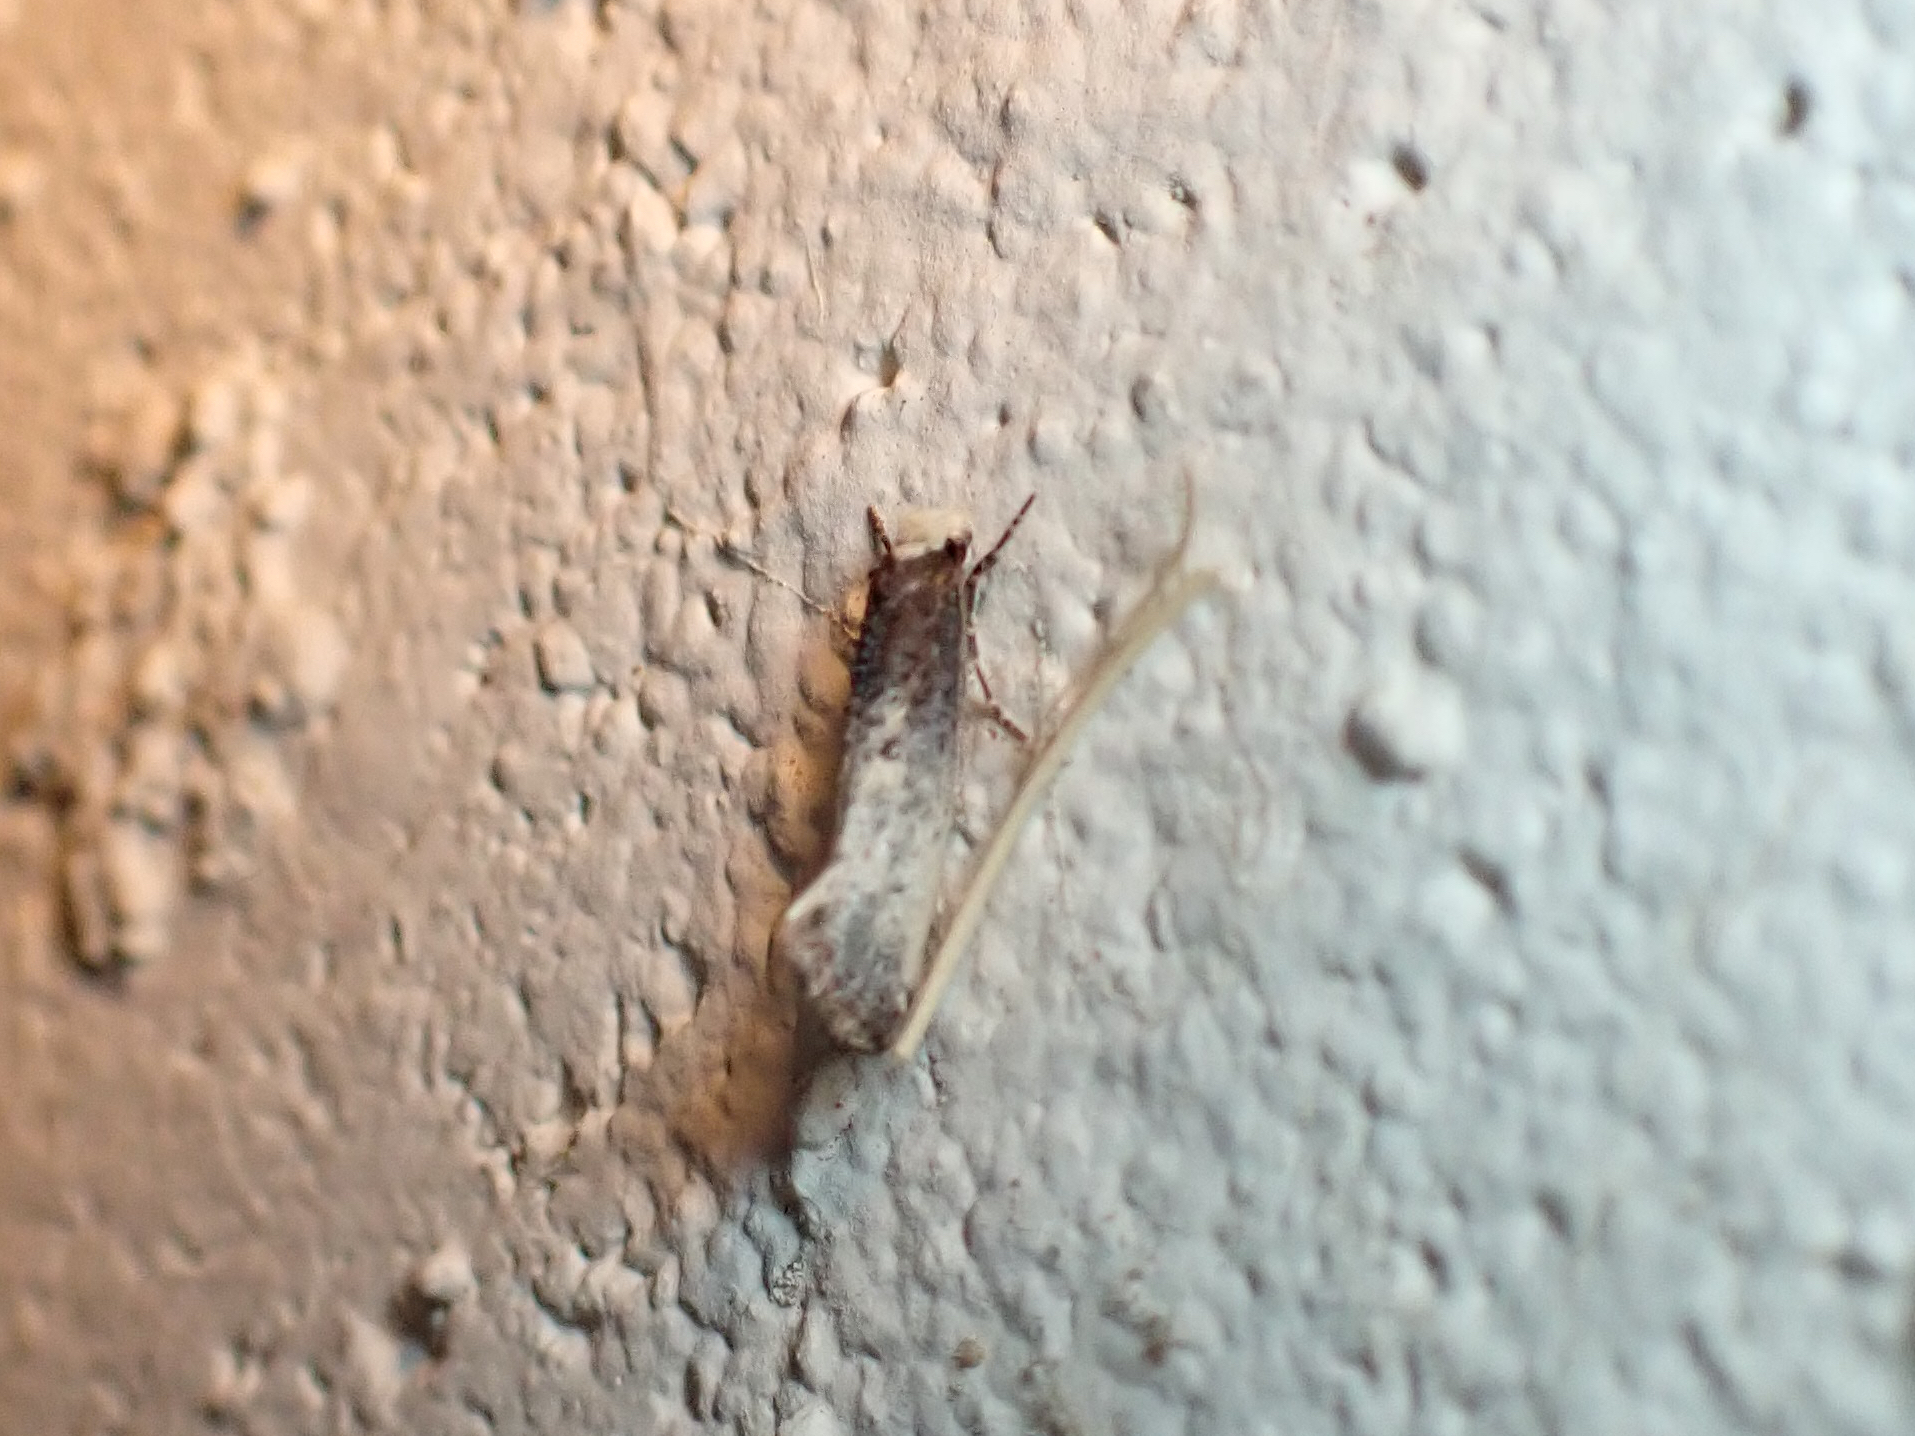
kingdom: Animalia
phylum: Arthropoda
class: Insecta
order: Lepidoptera
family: Tineidae
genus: Tinea
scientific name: Tinea occidentella
